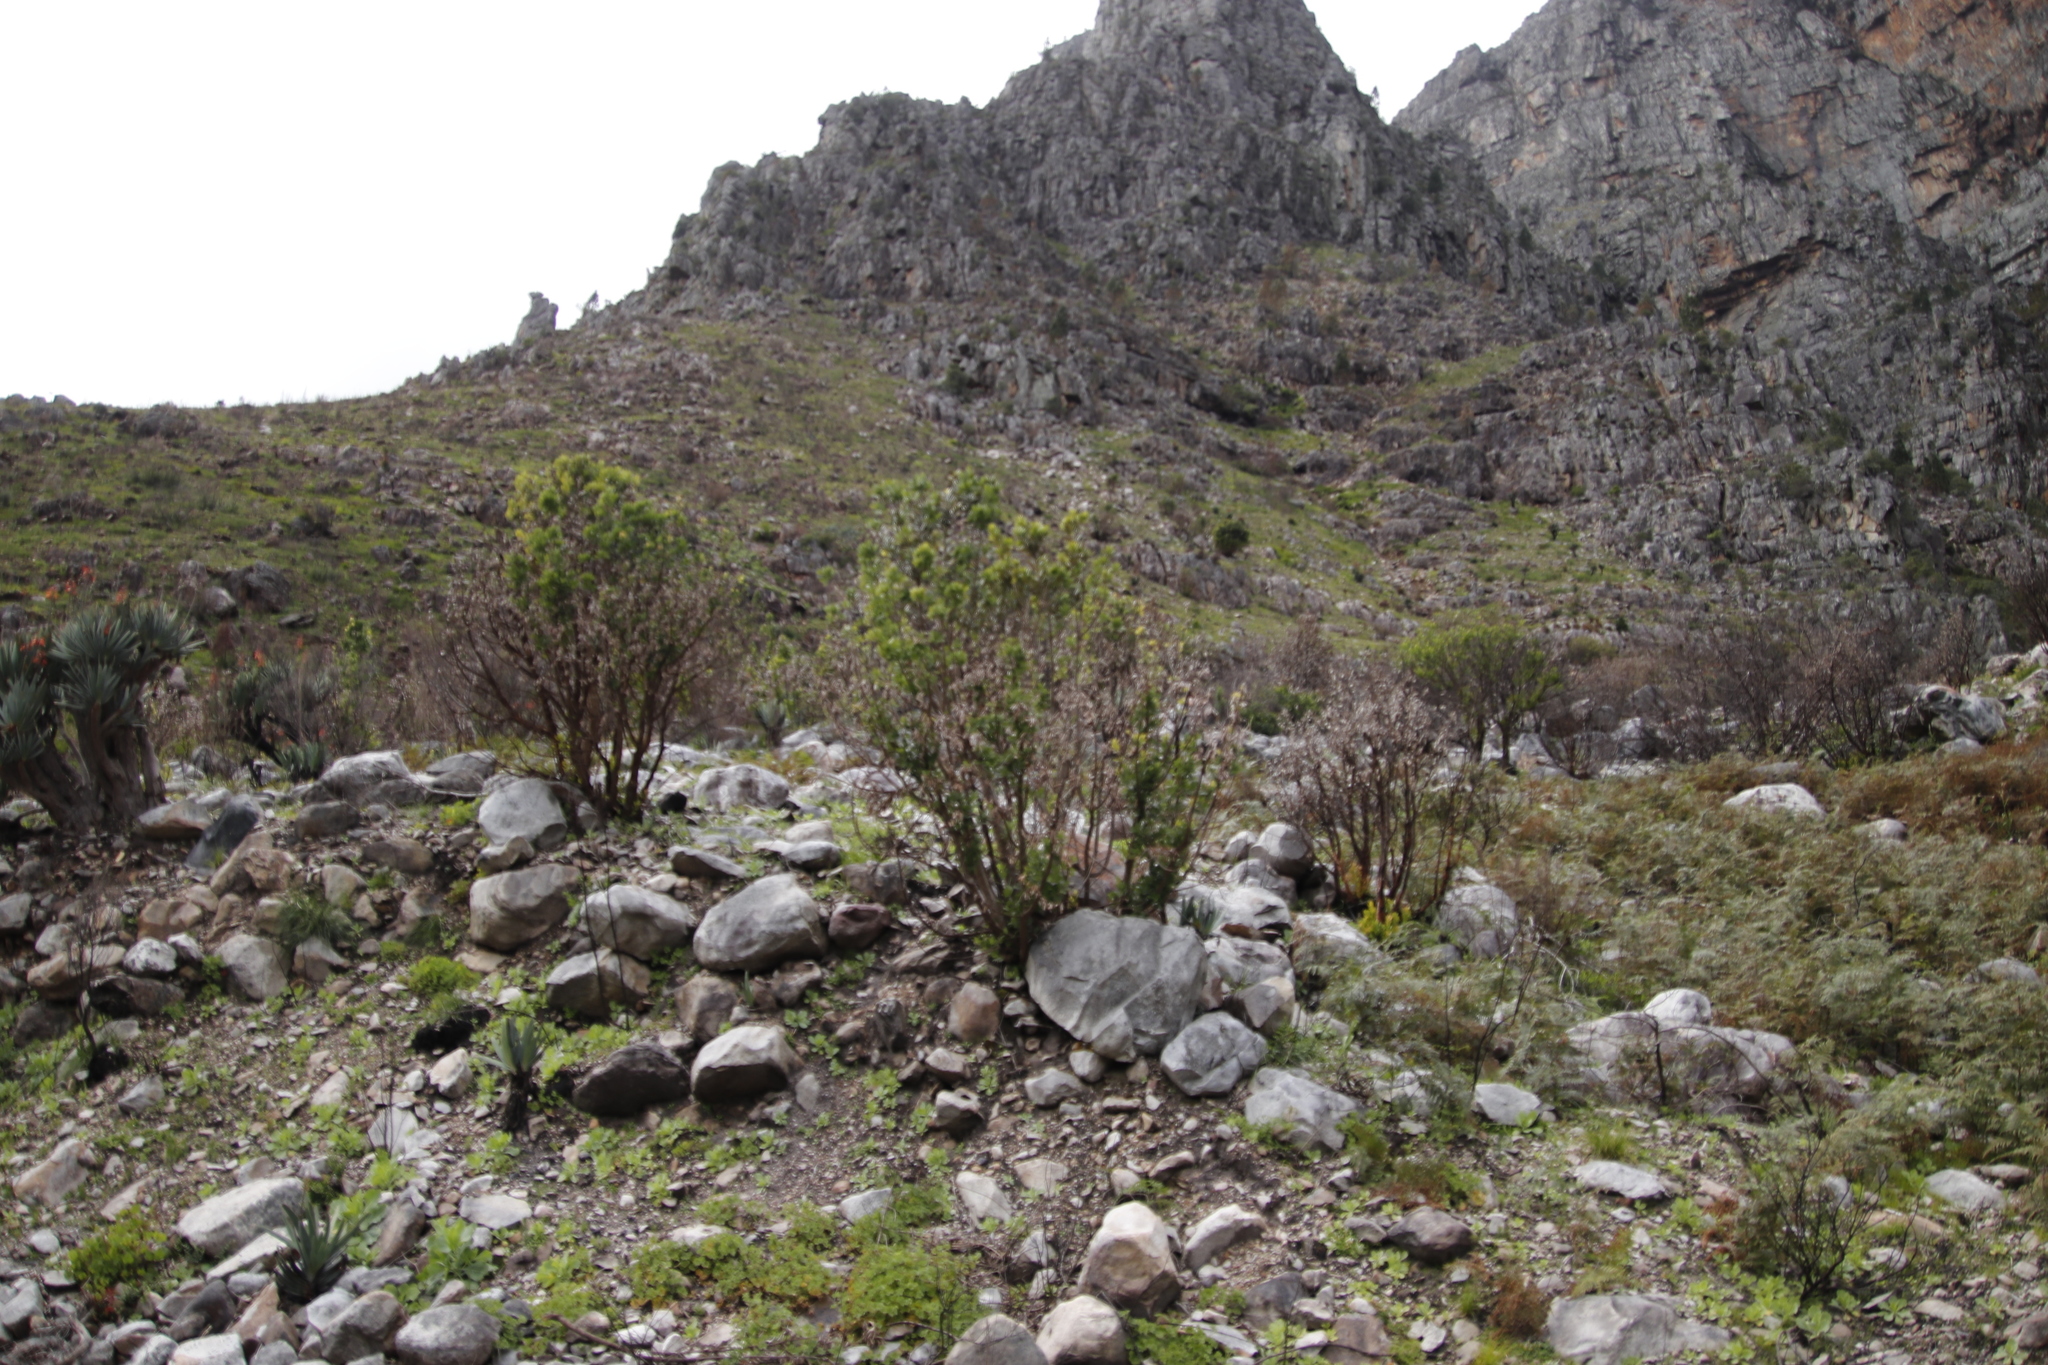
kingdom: Plantae
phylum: Tracheophyta
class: Magnoliopsida
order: Sapindales
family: Anacardiaceae
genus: Heeria
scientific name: Heeria argentea
